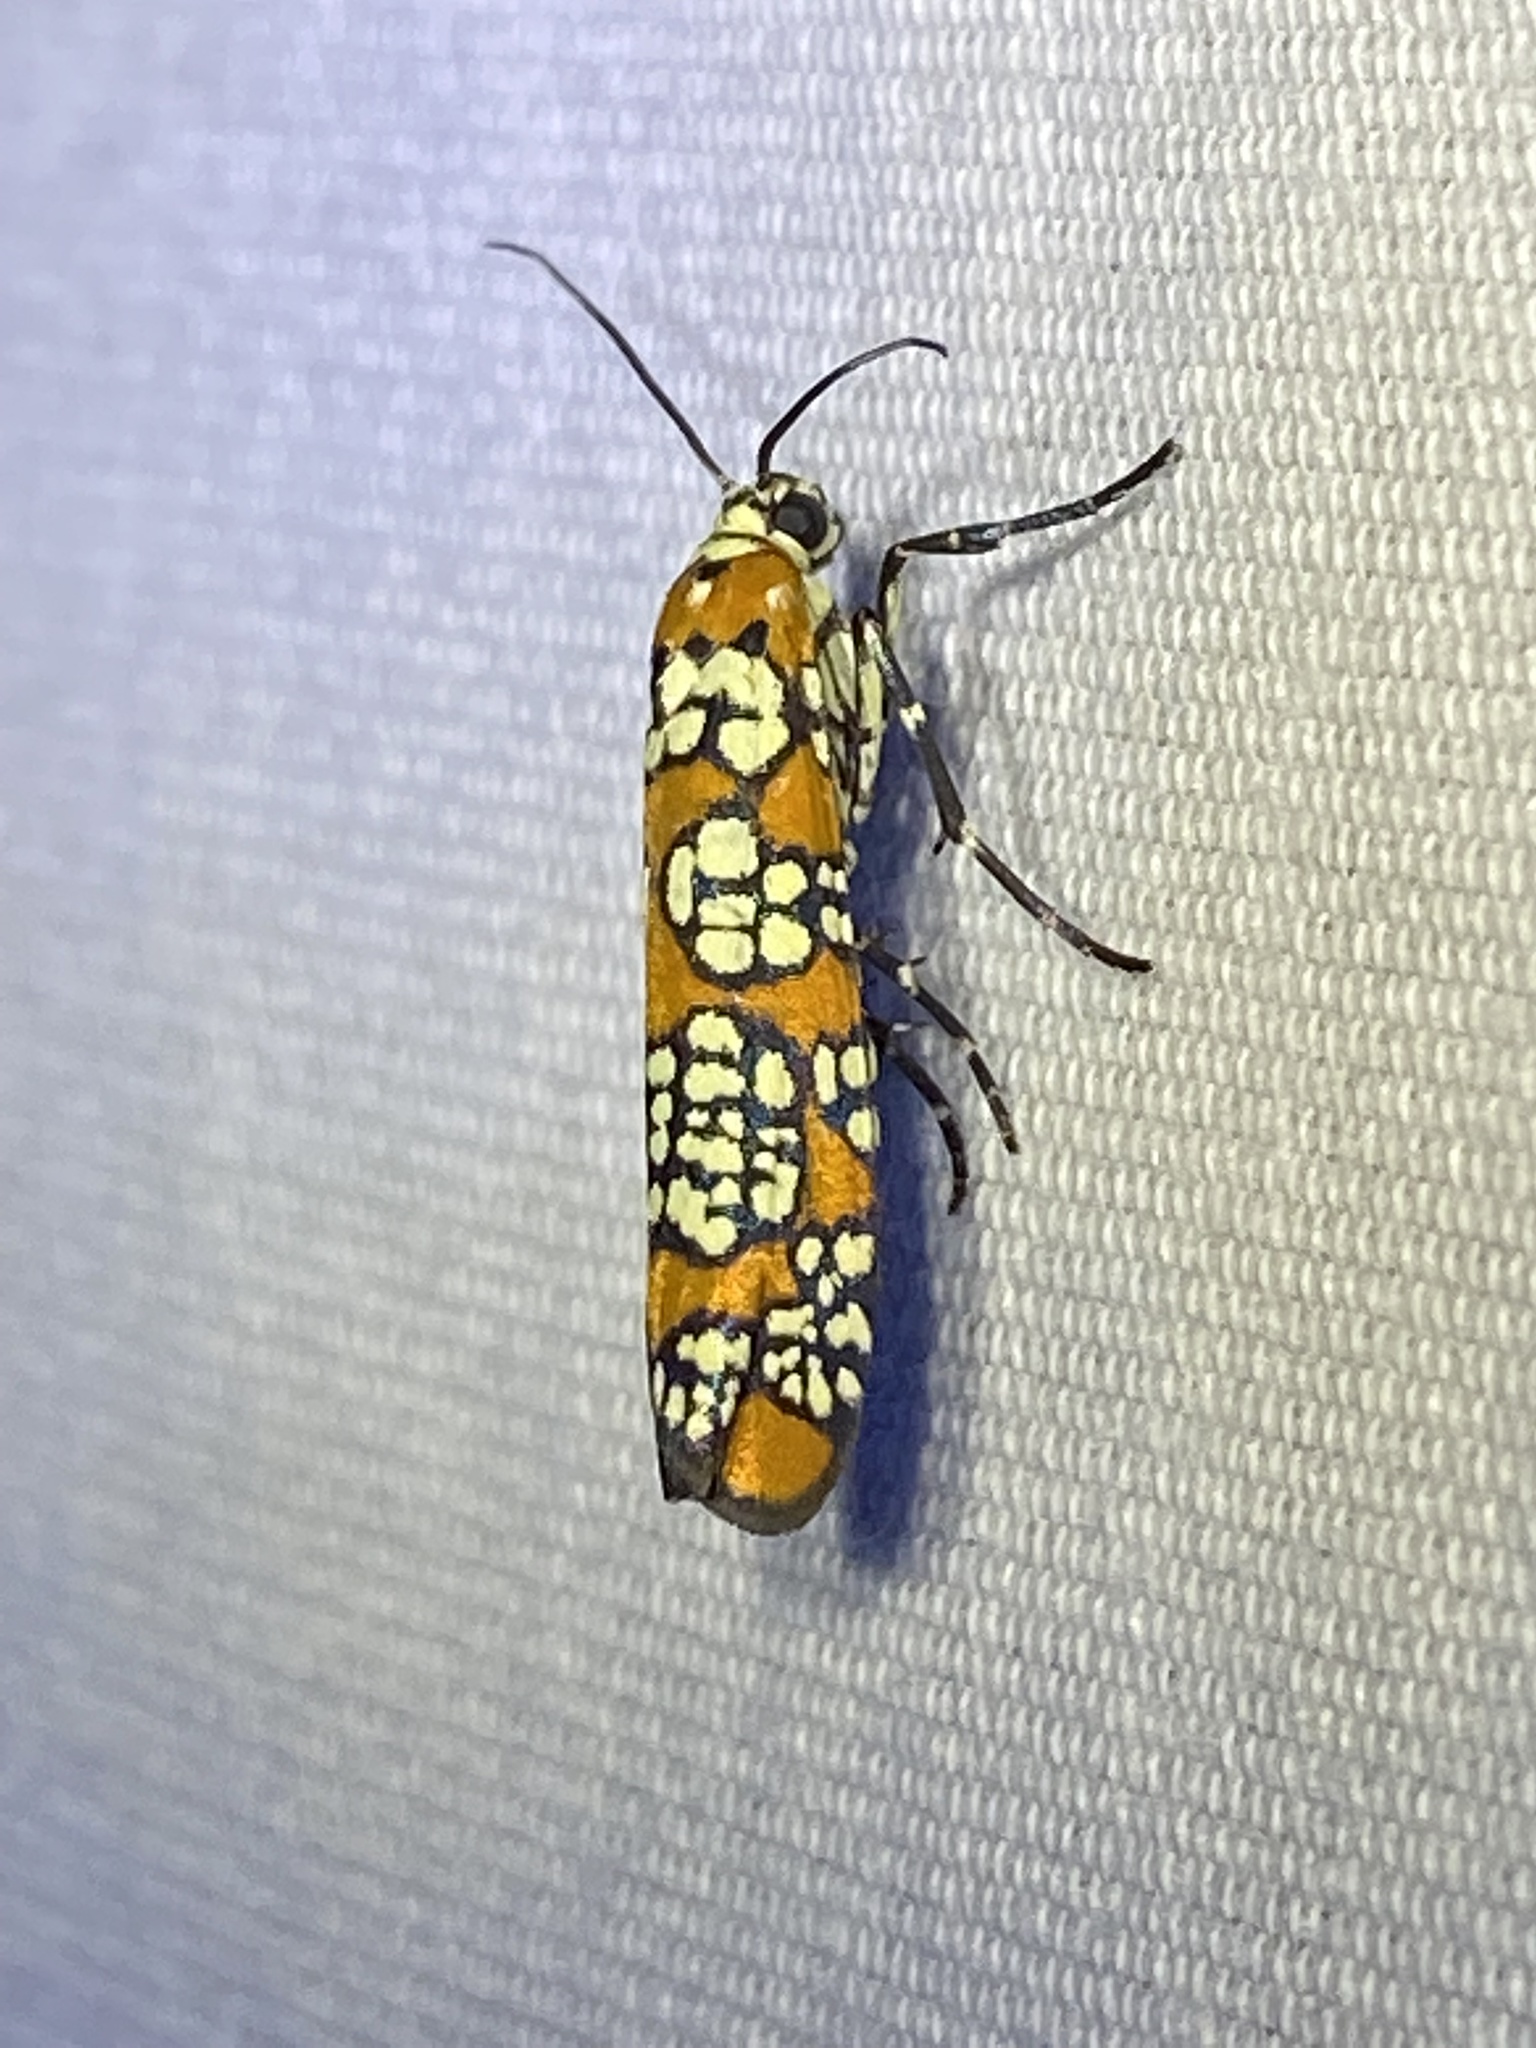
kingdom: Animalia
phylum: Arthropoda
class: Insecta
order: Lepidoptera
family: Attevidae
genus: Atteva
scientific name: Atteva punctella
